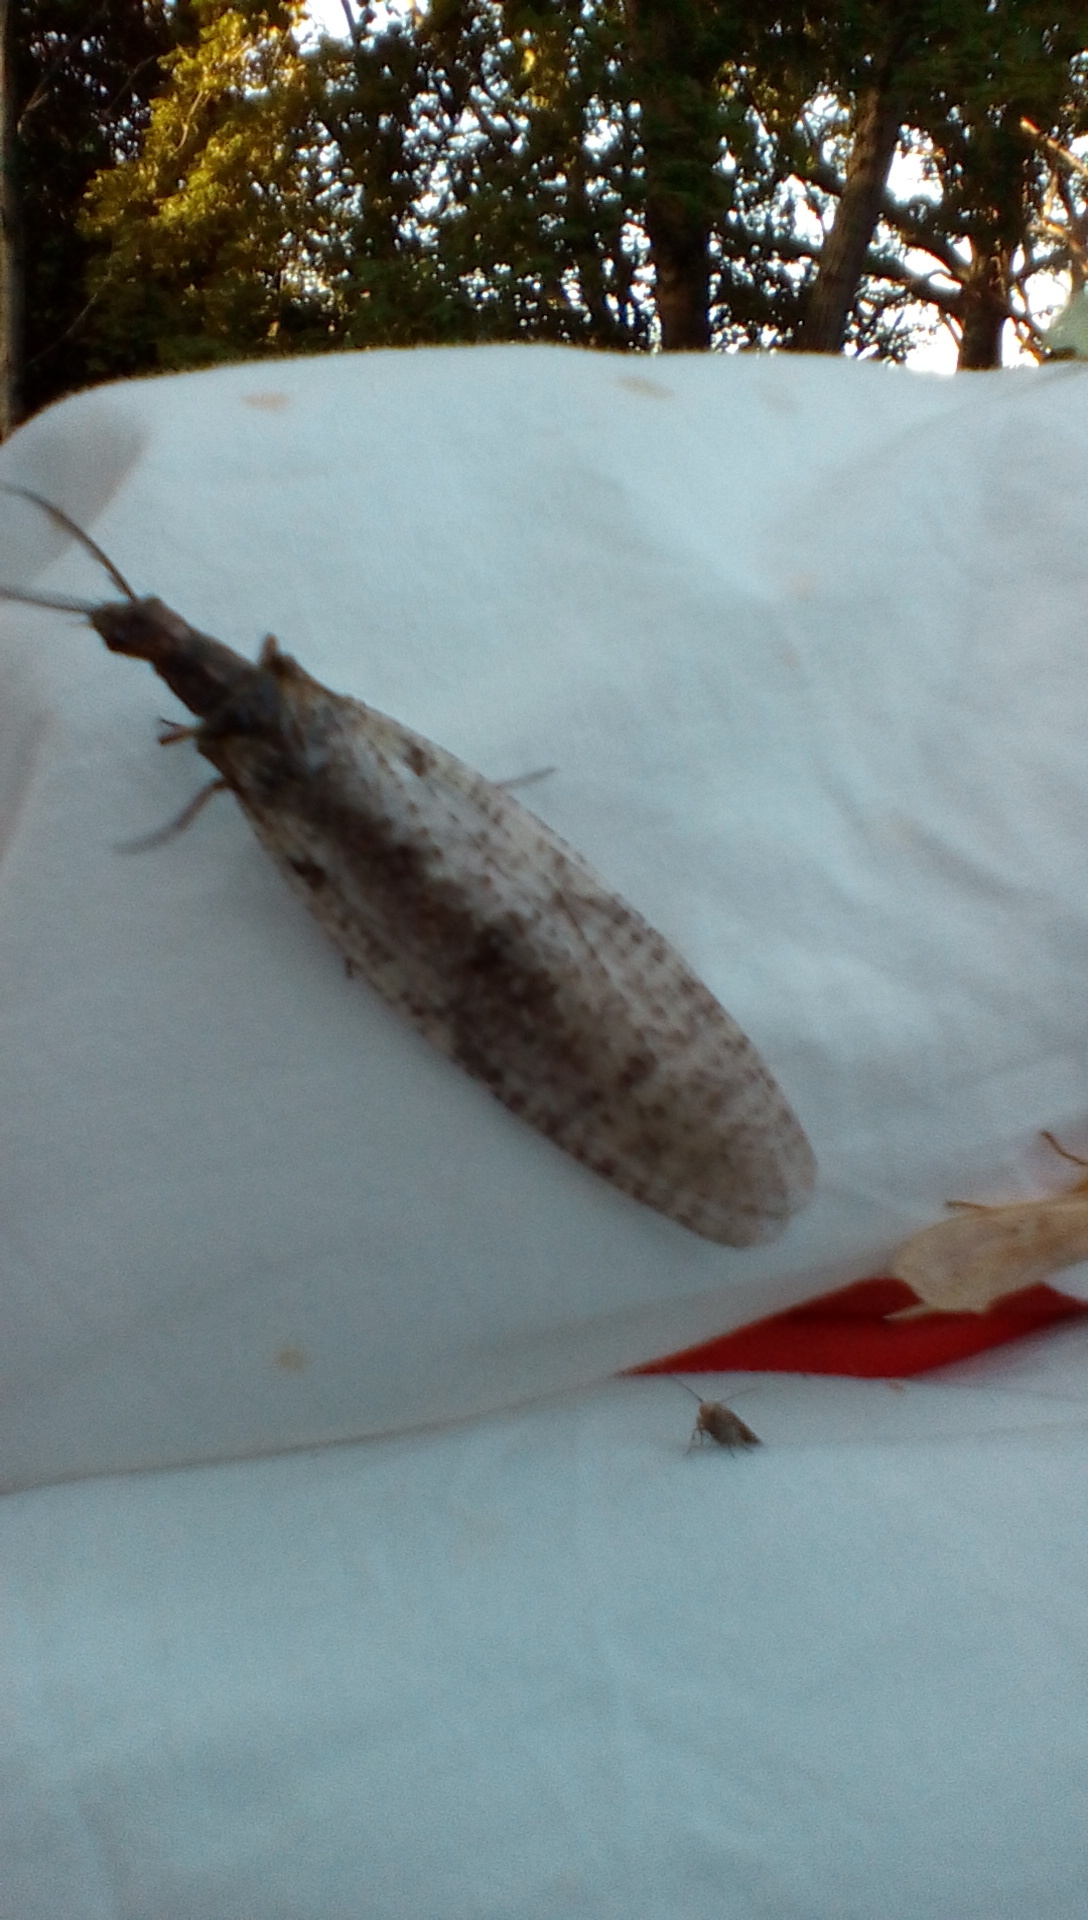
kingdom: Animalia
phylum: Arthropoda
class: Insecta
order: Megaloptera
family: Corydalidae
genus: Chauliodes
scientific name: Chauliodes pectinicornis
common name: Summer fishfly
